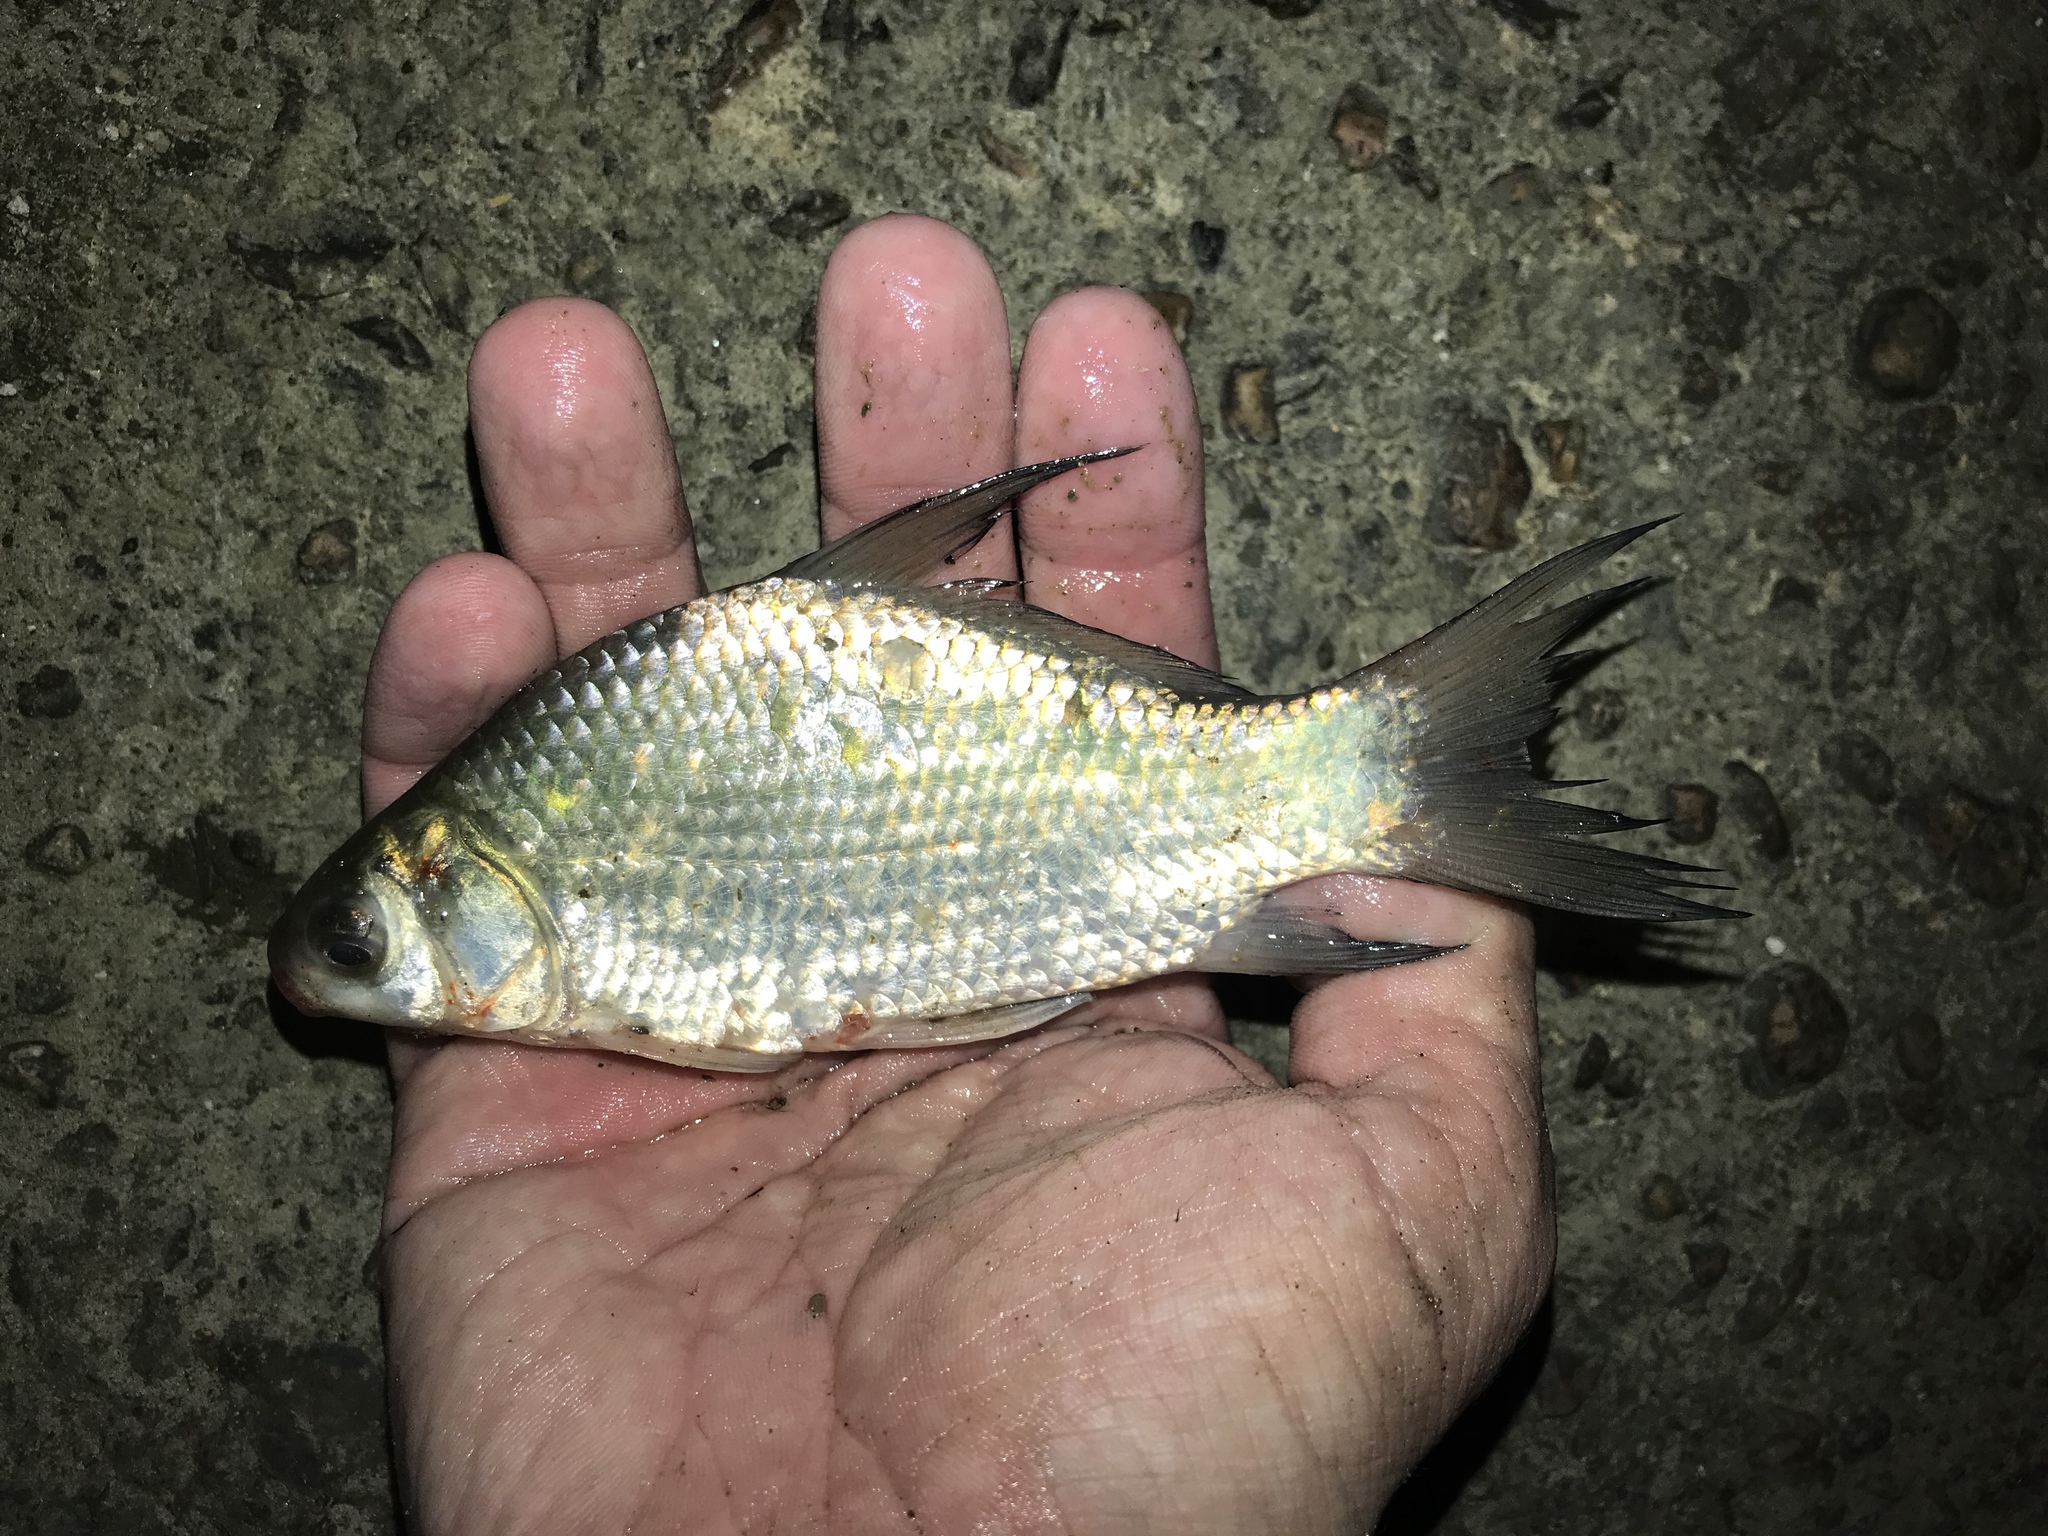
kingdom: Animalia
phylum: Chordata
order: Cypriniformes
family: Catostomidae
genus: Ictiobus
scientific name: Ictiobus bubalus
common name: Smallmouth buffalo
